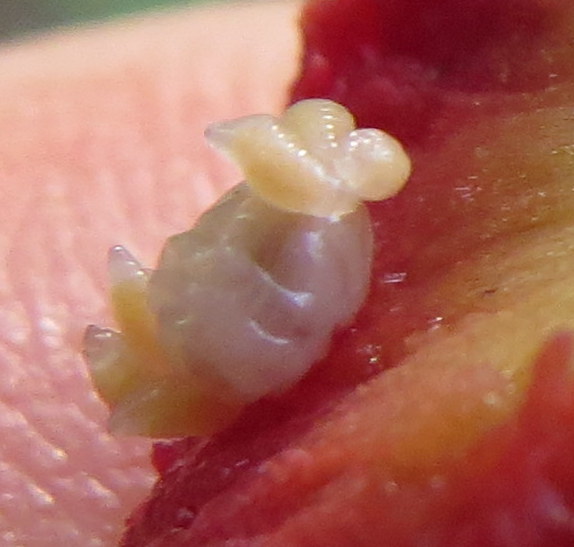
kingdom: Animalia
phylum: Arthropoda
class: Insecta
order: Hymenoptera
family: Cynipidae
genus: Amphibolips
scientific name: Amphibolips
